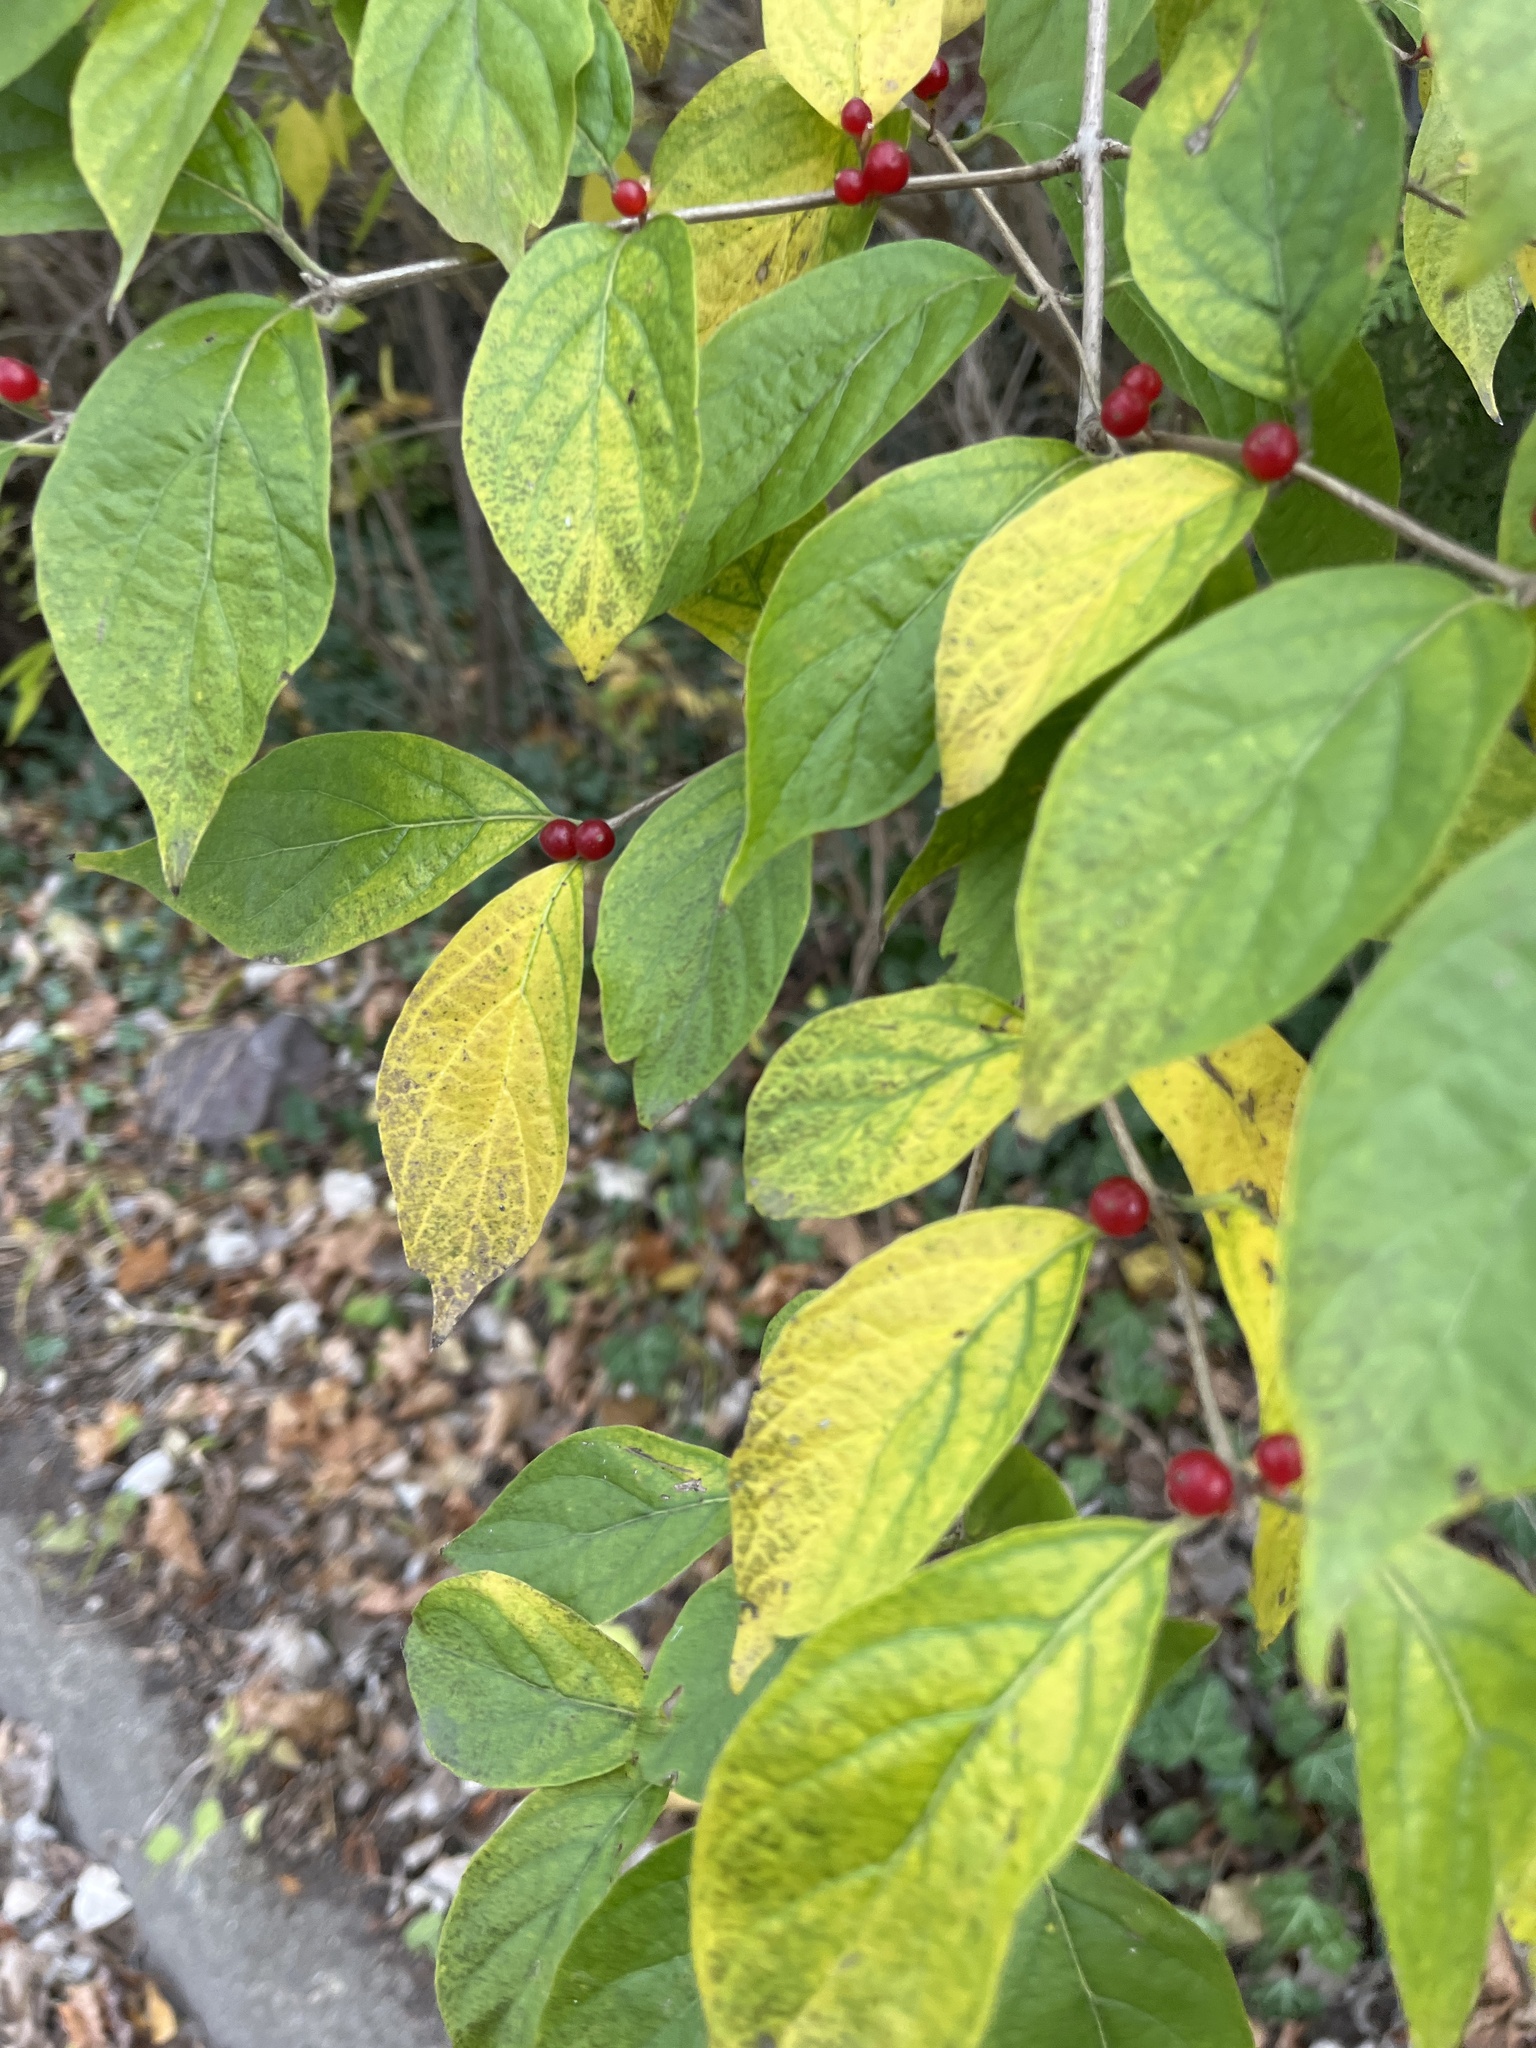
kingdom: Plantae
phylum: Tracheophyta
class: Magnoliopsida
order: Dipsacales
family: Caprifoliaceae
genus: Lonicera
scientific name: Lonicera maackii
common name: Amur honeysuckle
